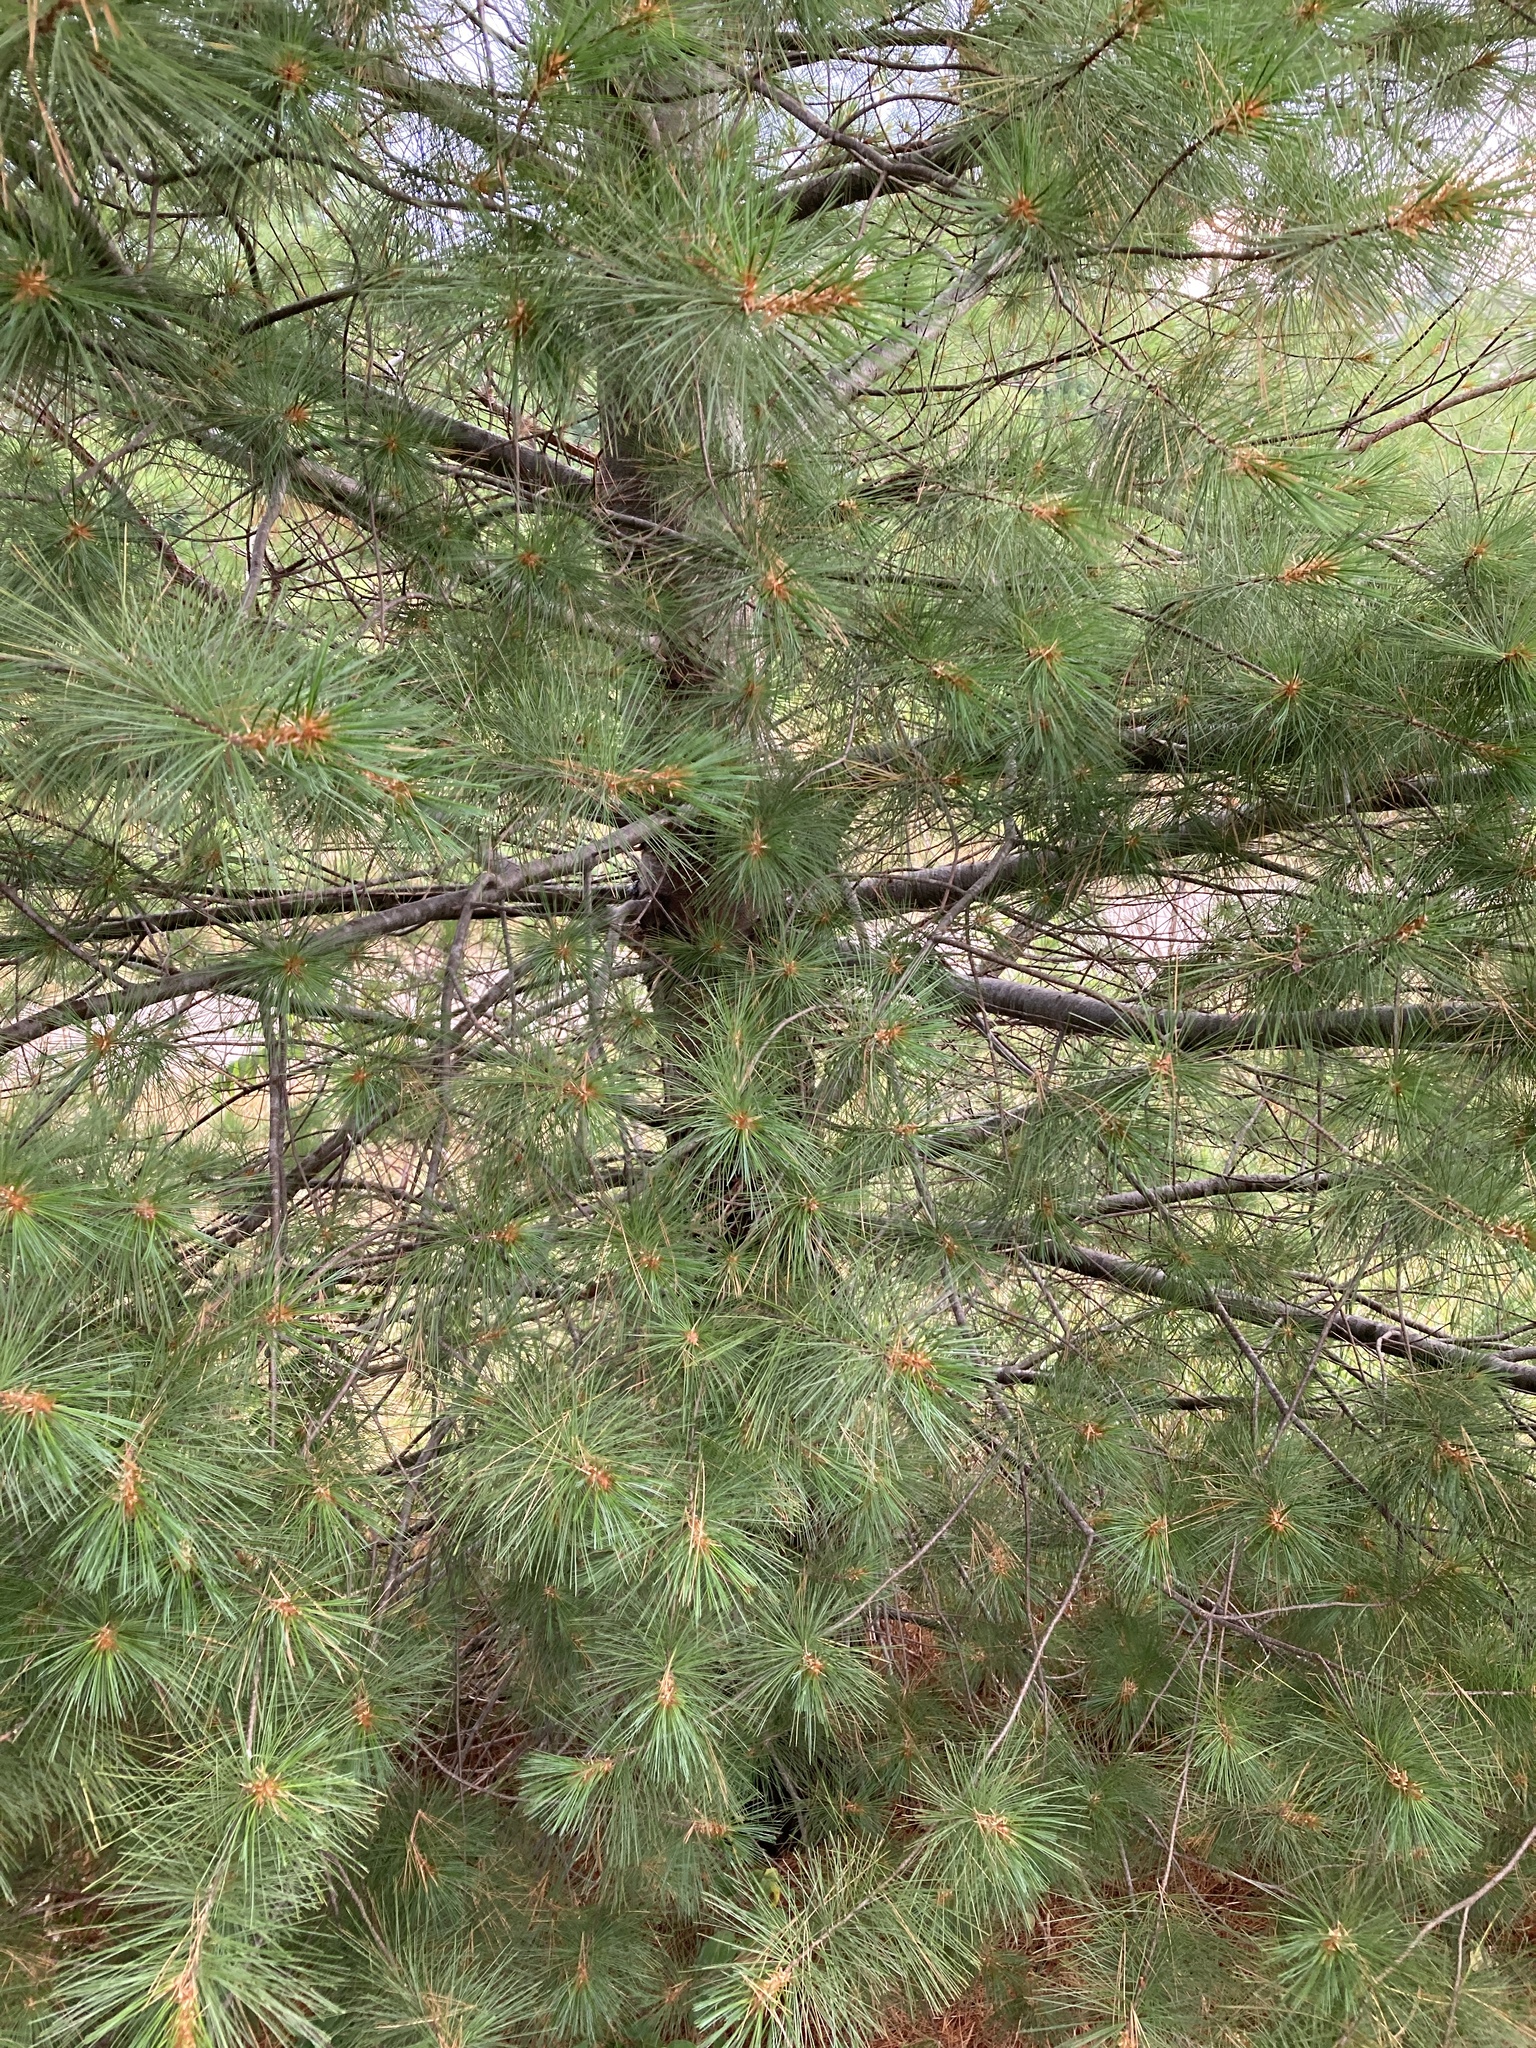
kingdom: Plantae
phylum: Tracheophyta
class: Pinopsida
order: Pinales
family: Pinaceae
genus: Pinus
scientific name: Pinus strobus
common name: Weymouth pine
